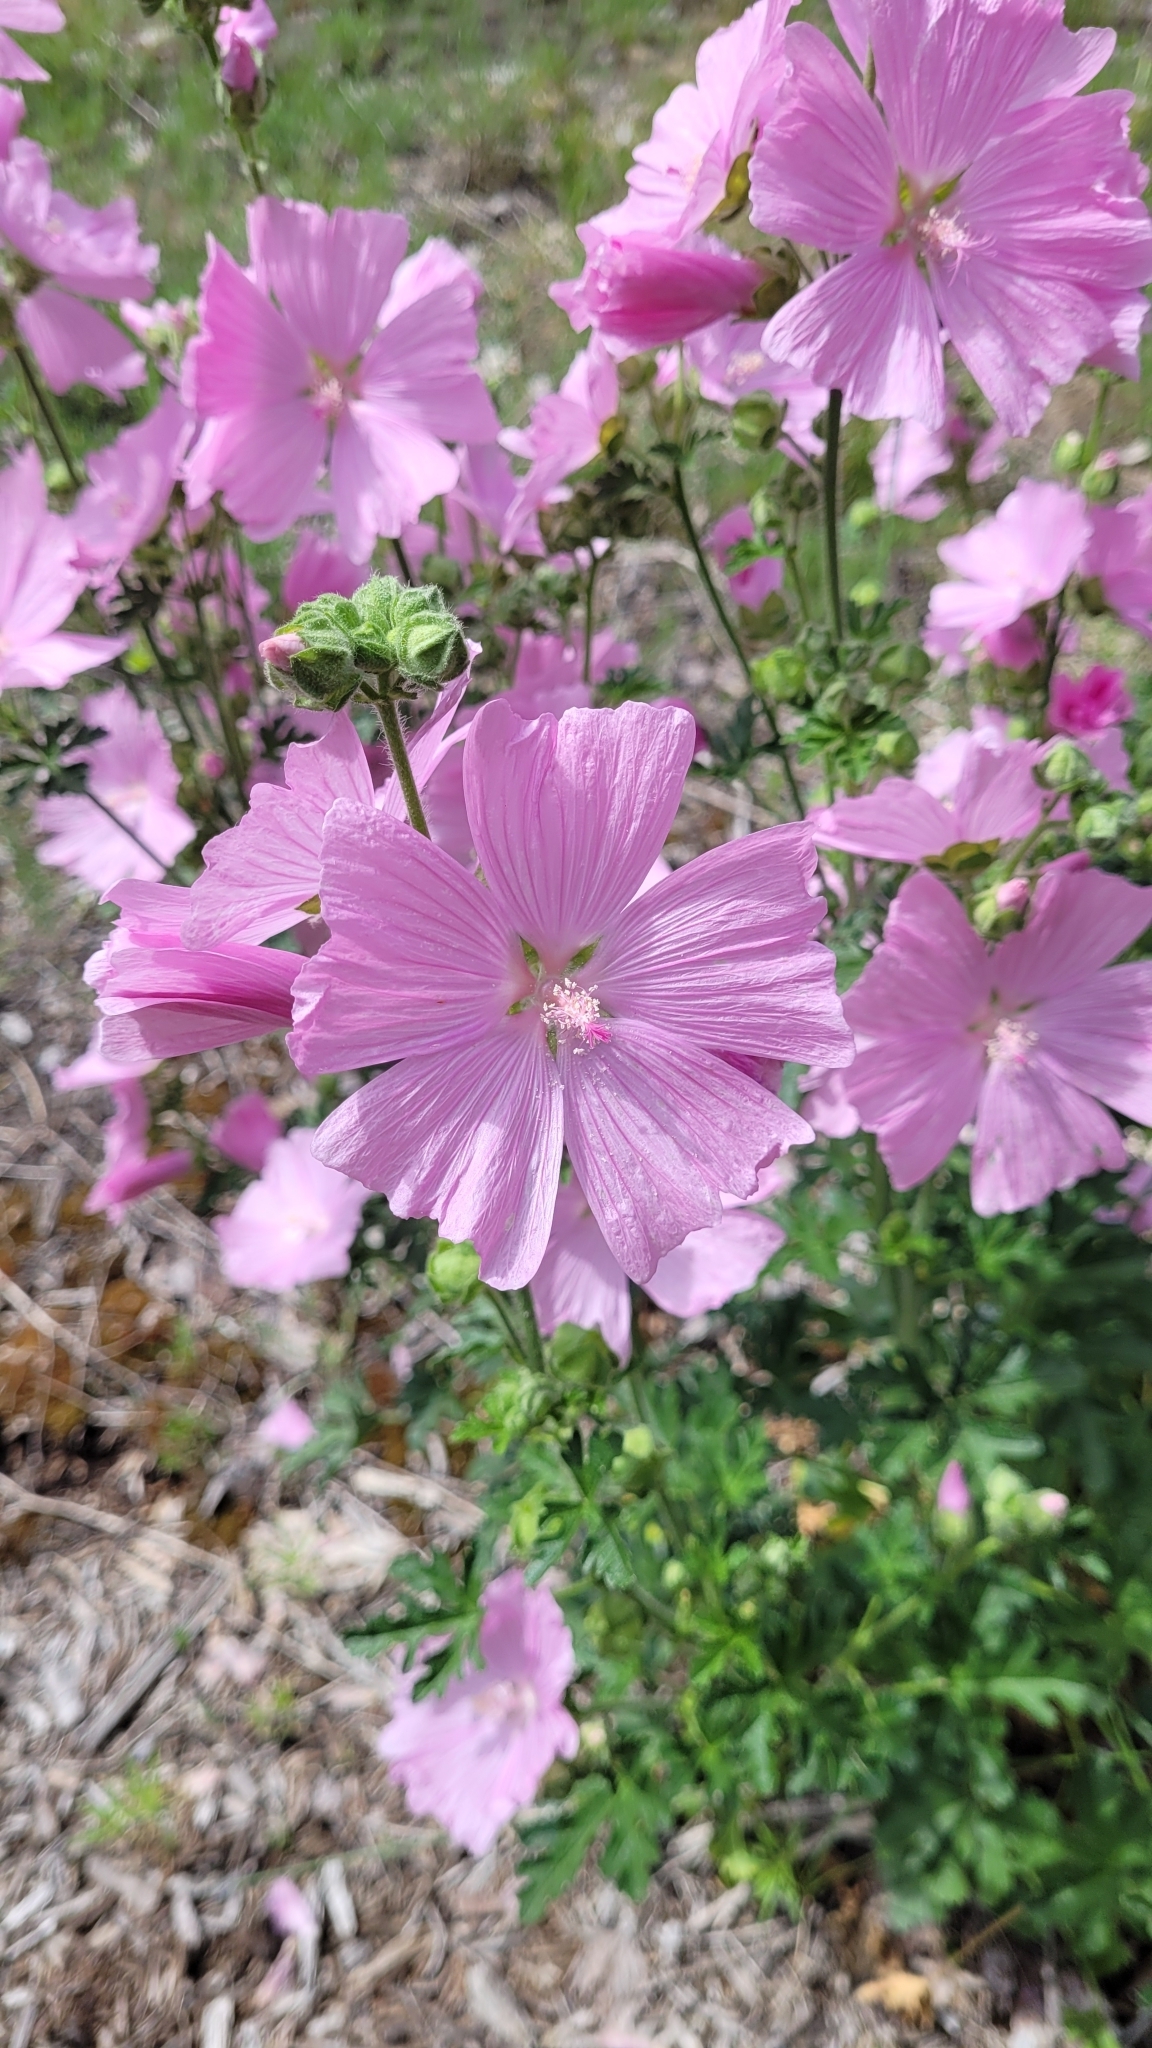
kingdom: Plantae
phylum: Tracheophyta
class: Magnoliopsida
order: Malvales
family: Malvaceae
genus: Malva
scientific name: Malva moschata
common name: Musk mallow
